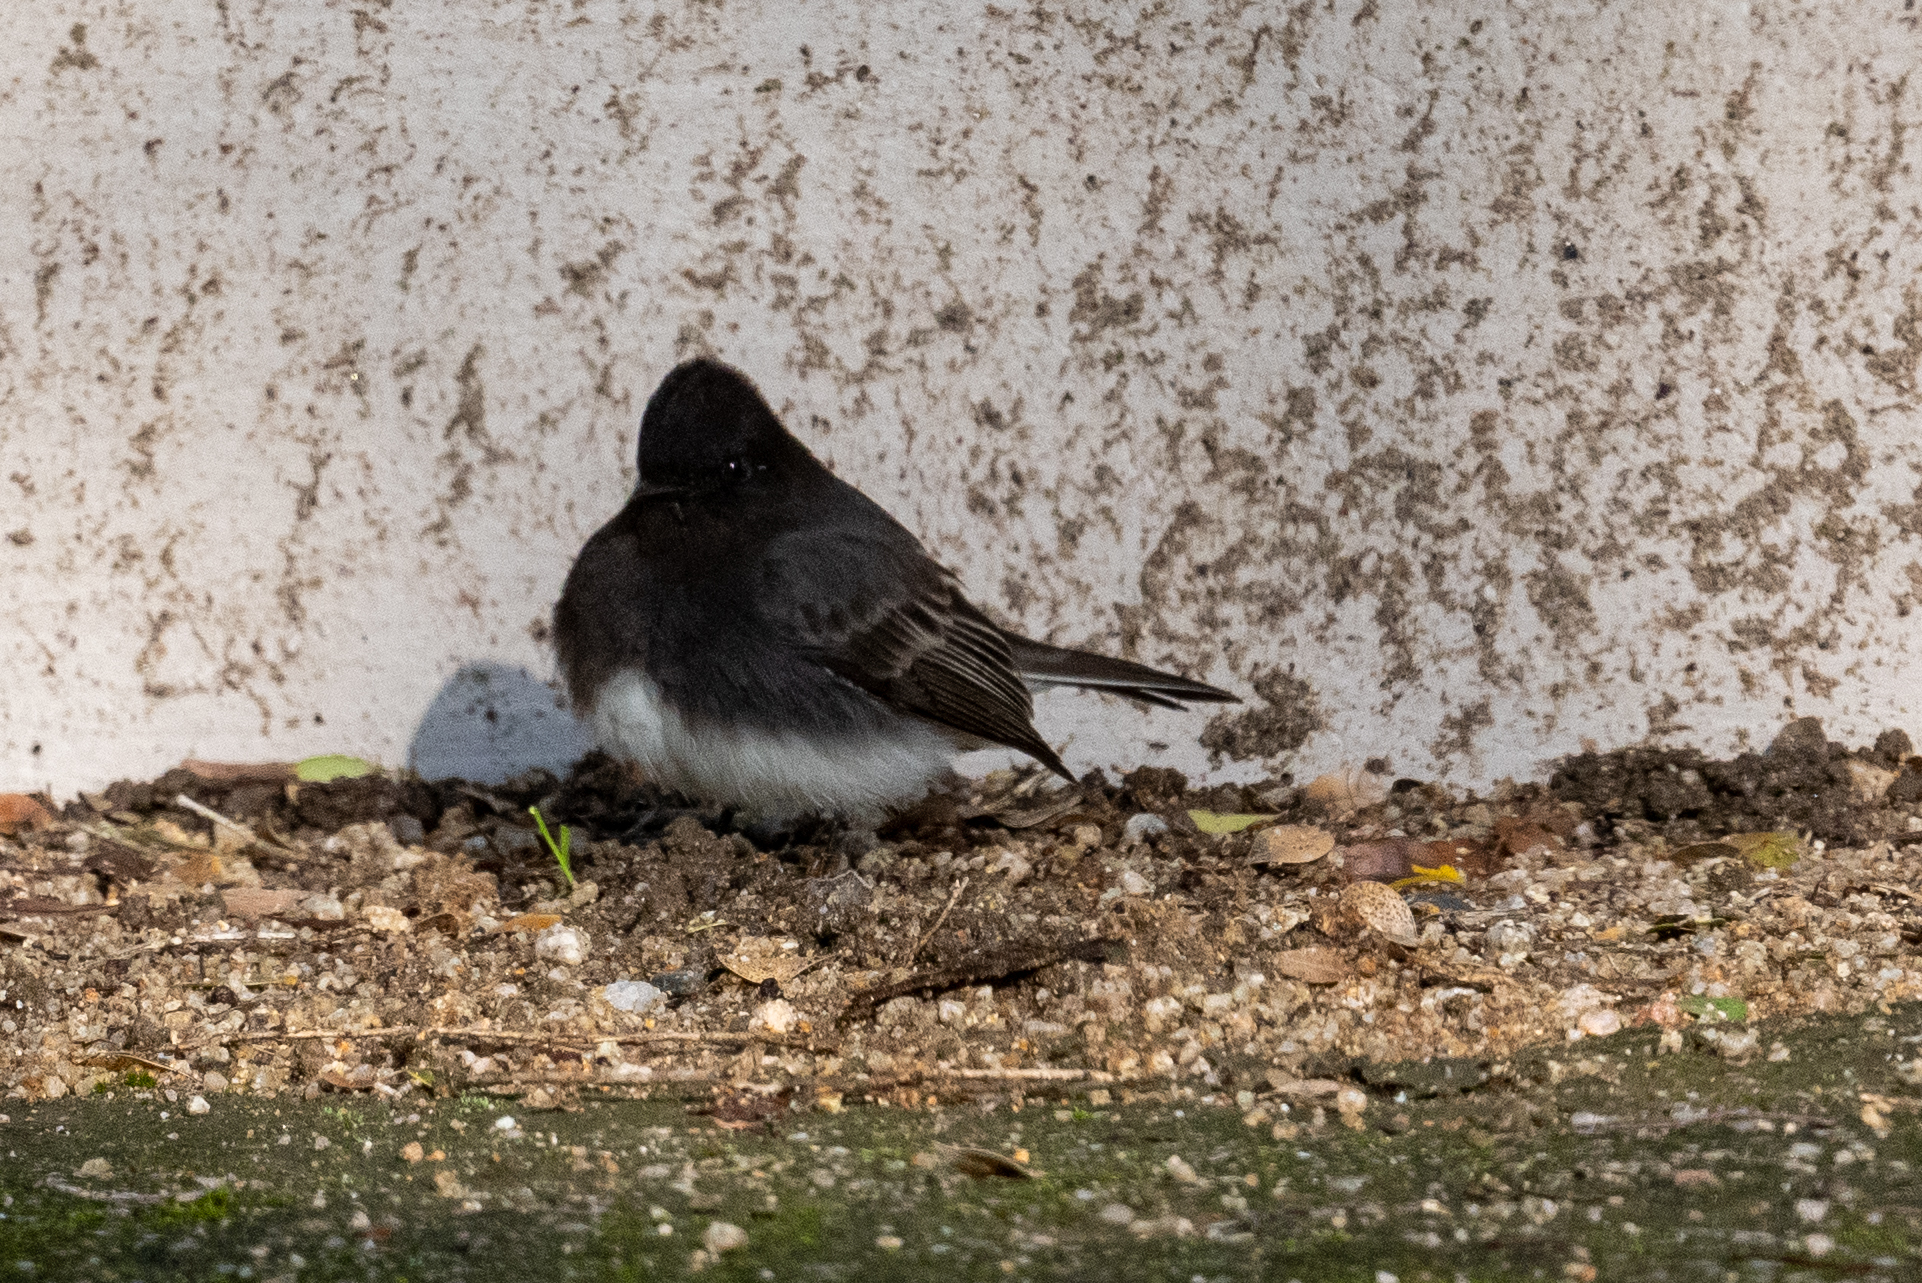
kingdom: Animalia
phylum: Chordata
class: Aves
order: Passeriformes
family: Tyrannidae
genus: Sayornis
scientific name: Sayornis nigricans
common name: Black phoebe
